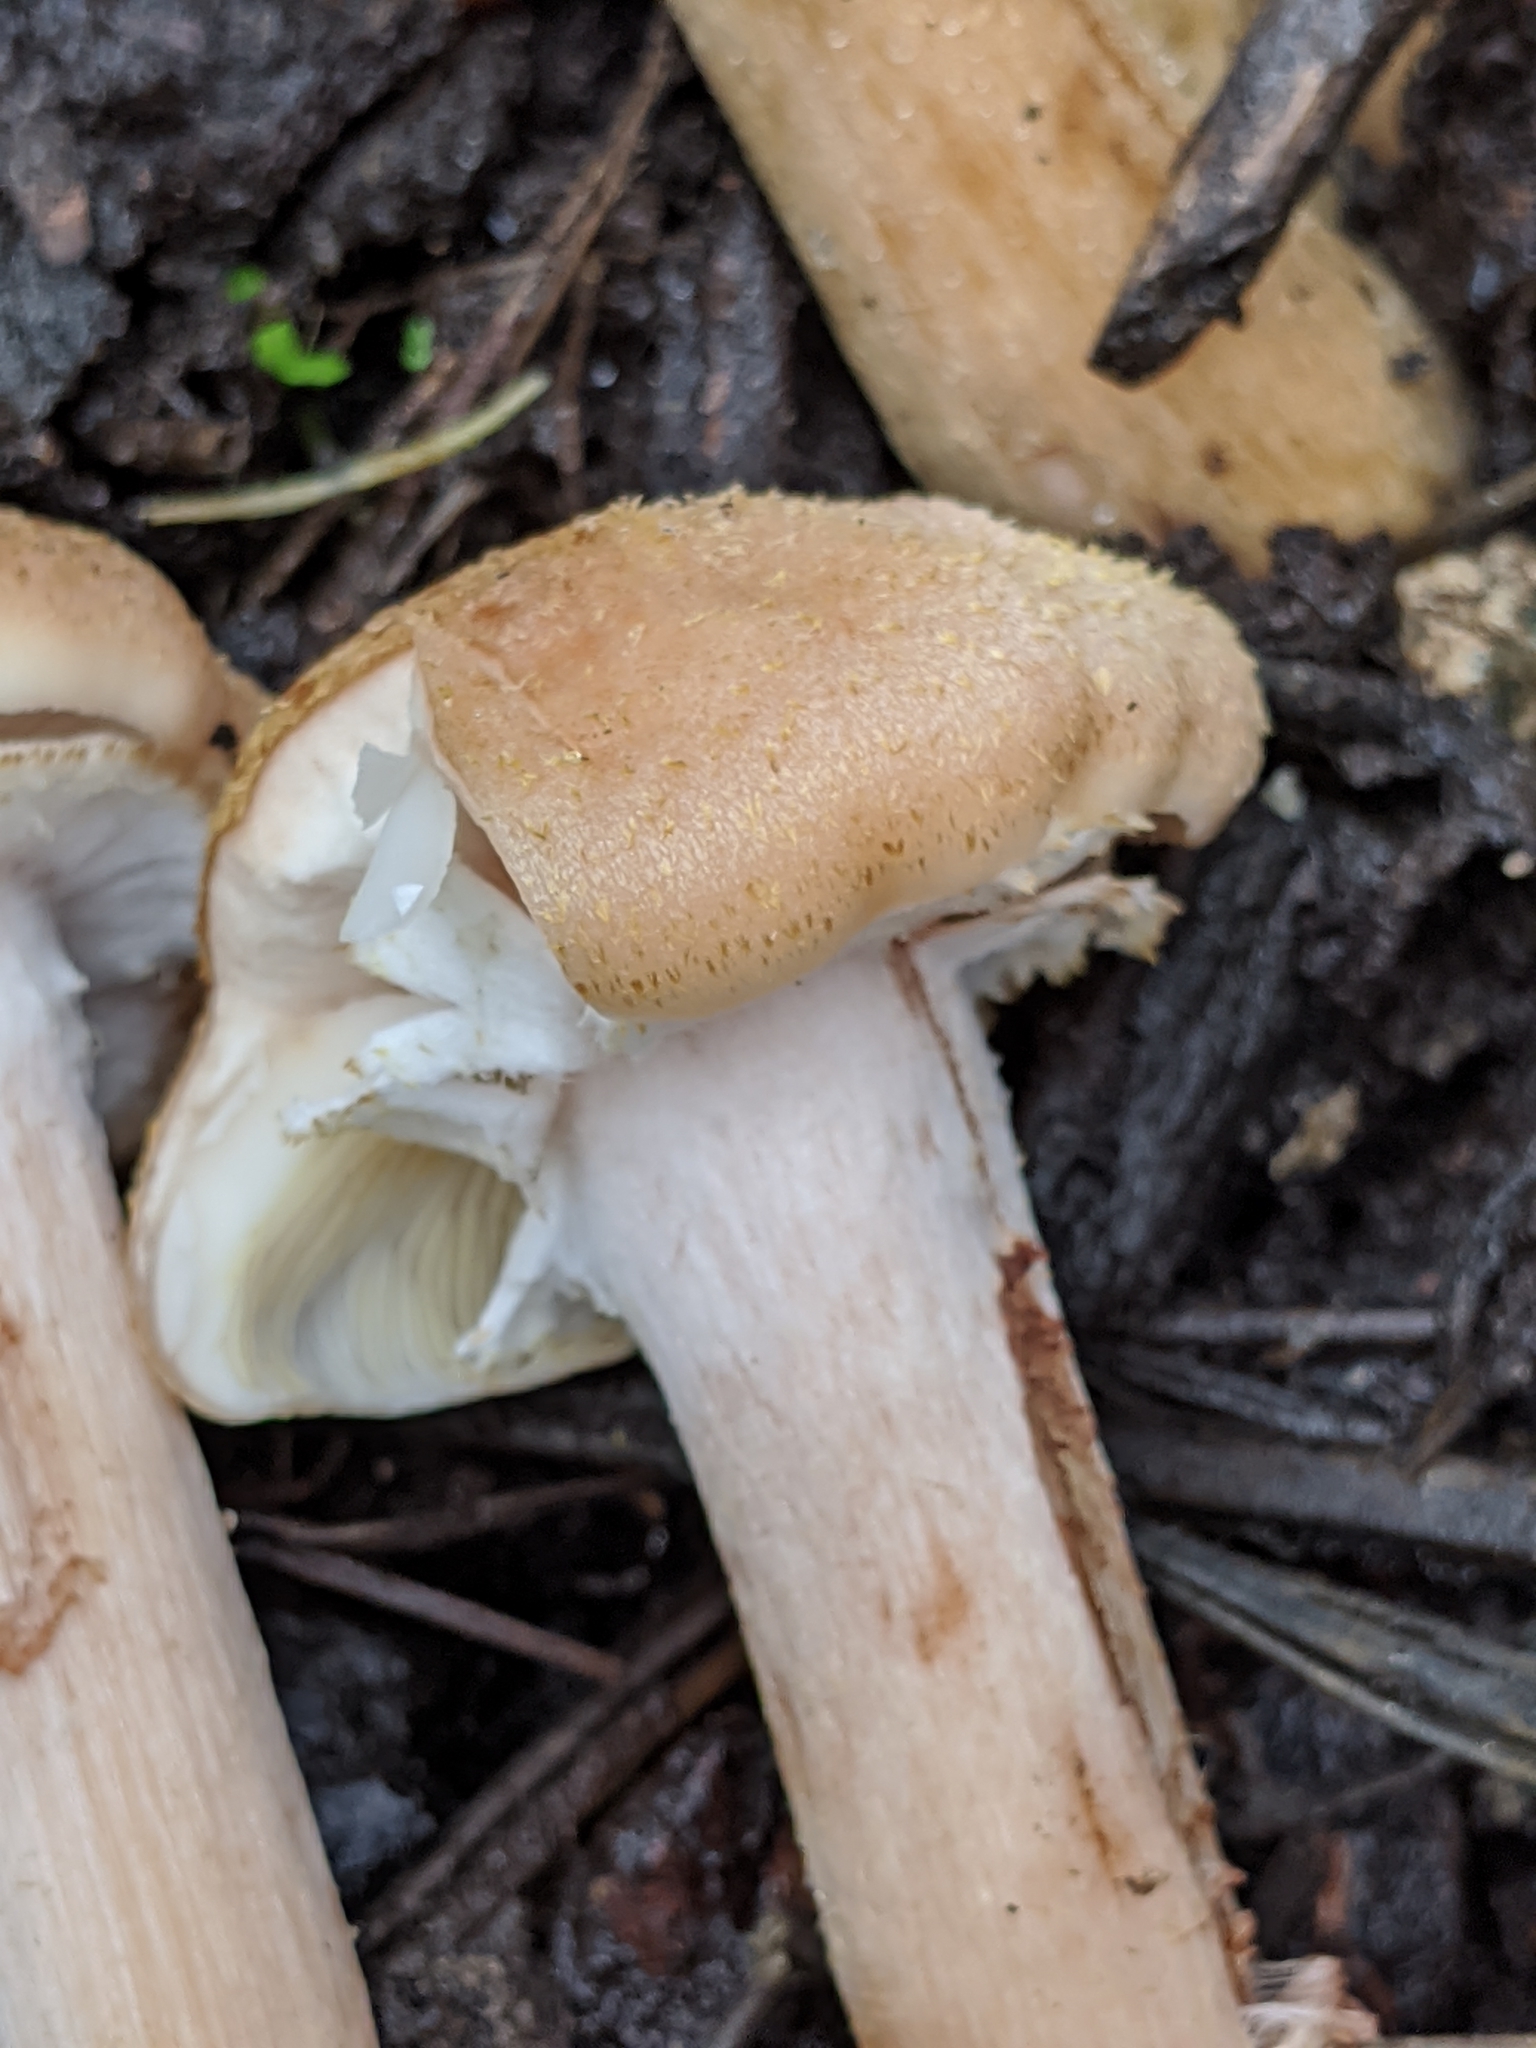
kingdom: Fungi
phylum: Basidiomycota
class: Agaricomycetes
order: Agaricales
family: Physalacriaceae
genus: Armillaria
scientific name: Armillaria mellea
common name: Honey fungus
